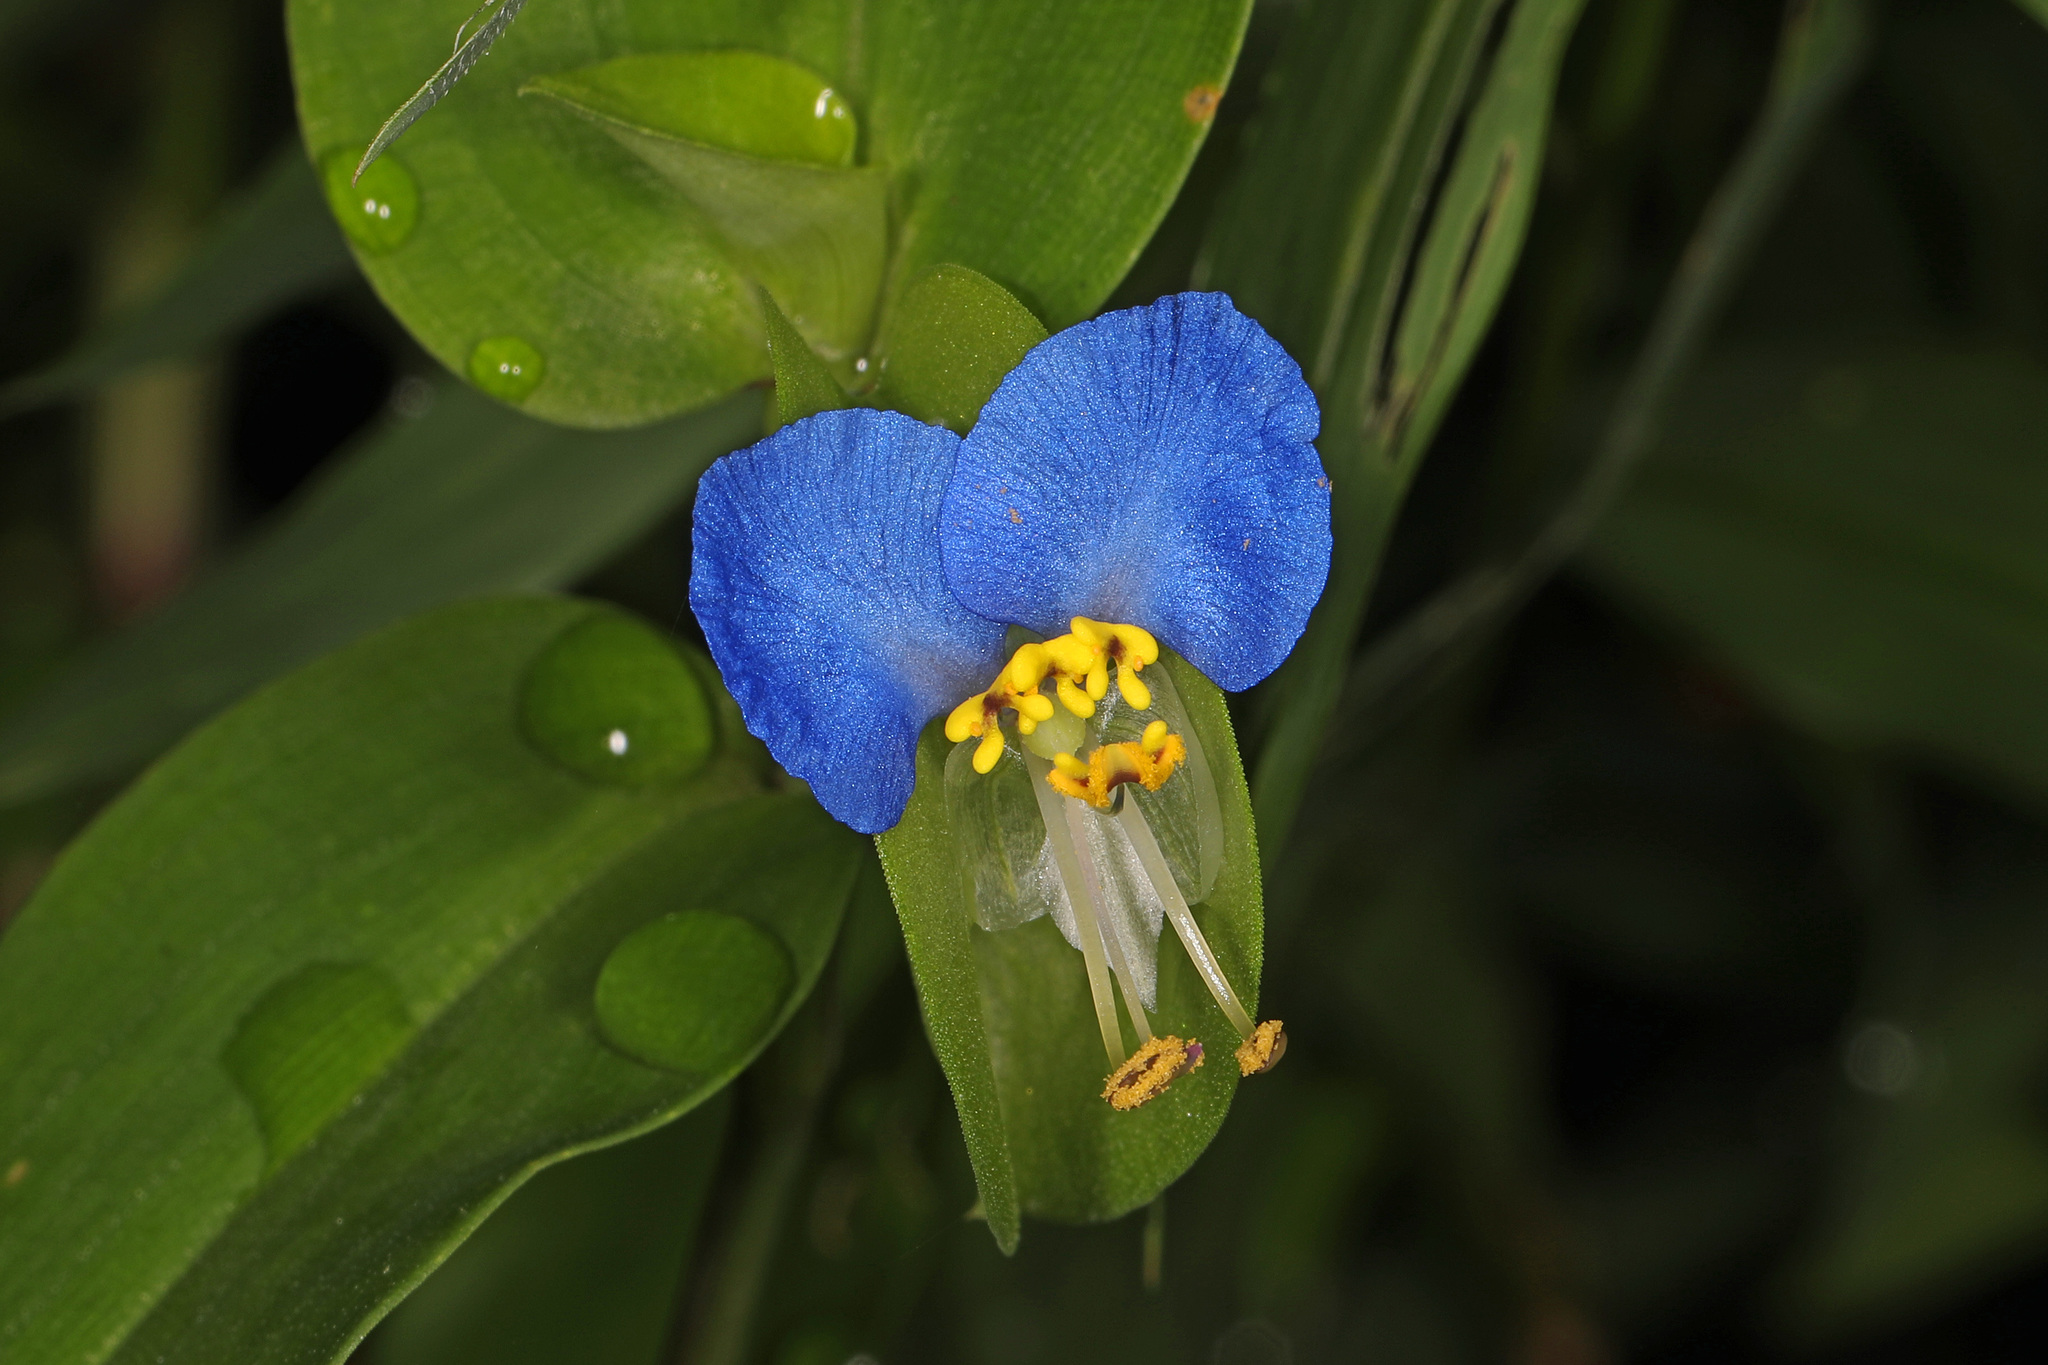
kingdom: Plantae
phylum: Tracheophyta
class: Liliopsida
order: Commelinales
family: Commelinaceae
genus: Commelina
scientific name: Commelina communis
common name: Asiatic dayflower
